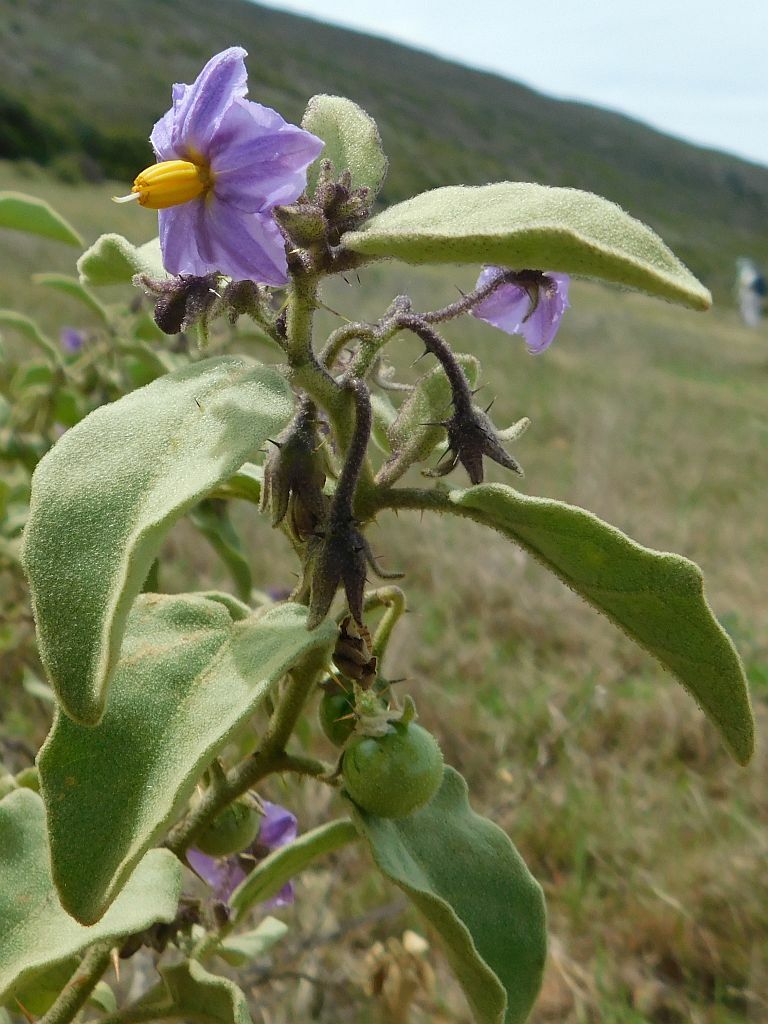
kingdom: Plantae
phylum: Tracheophyta
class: Magnoliopsida
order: Solanales
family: Solanaceae
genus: Solanum
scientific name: Solanum tomentosum
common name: Wild aubergine
